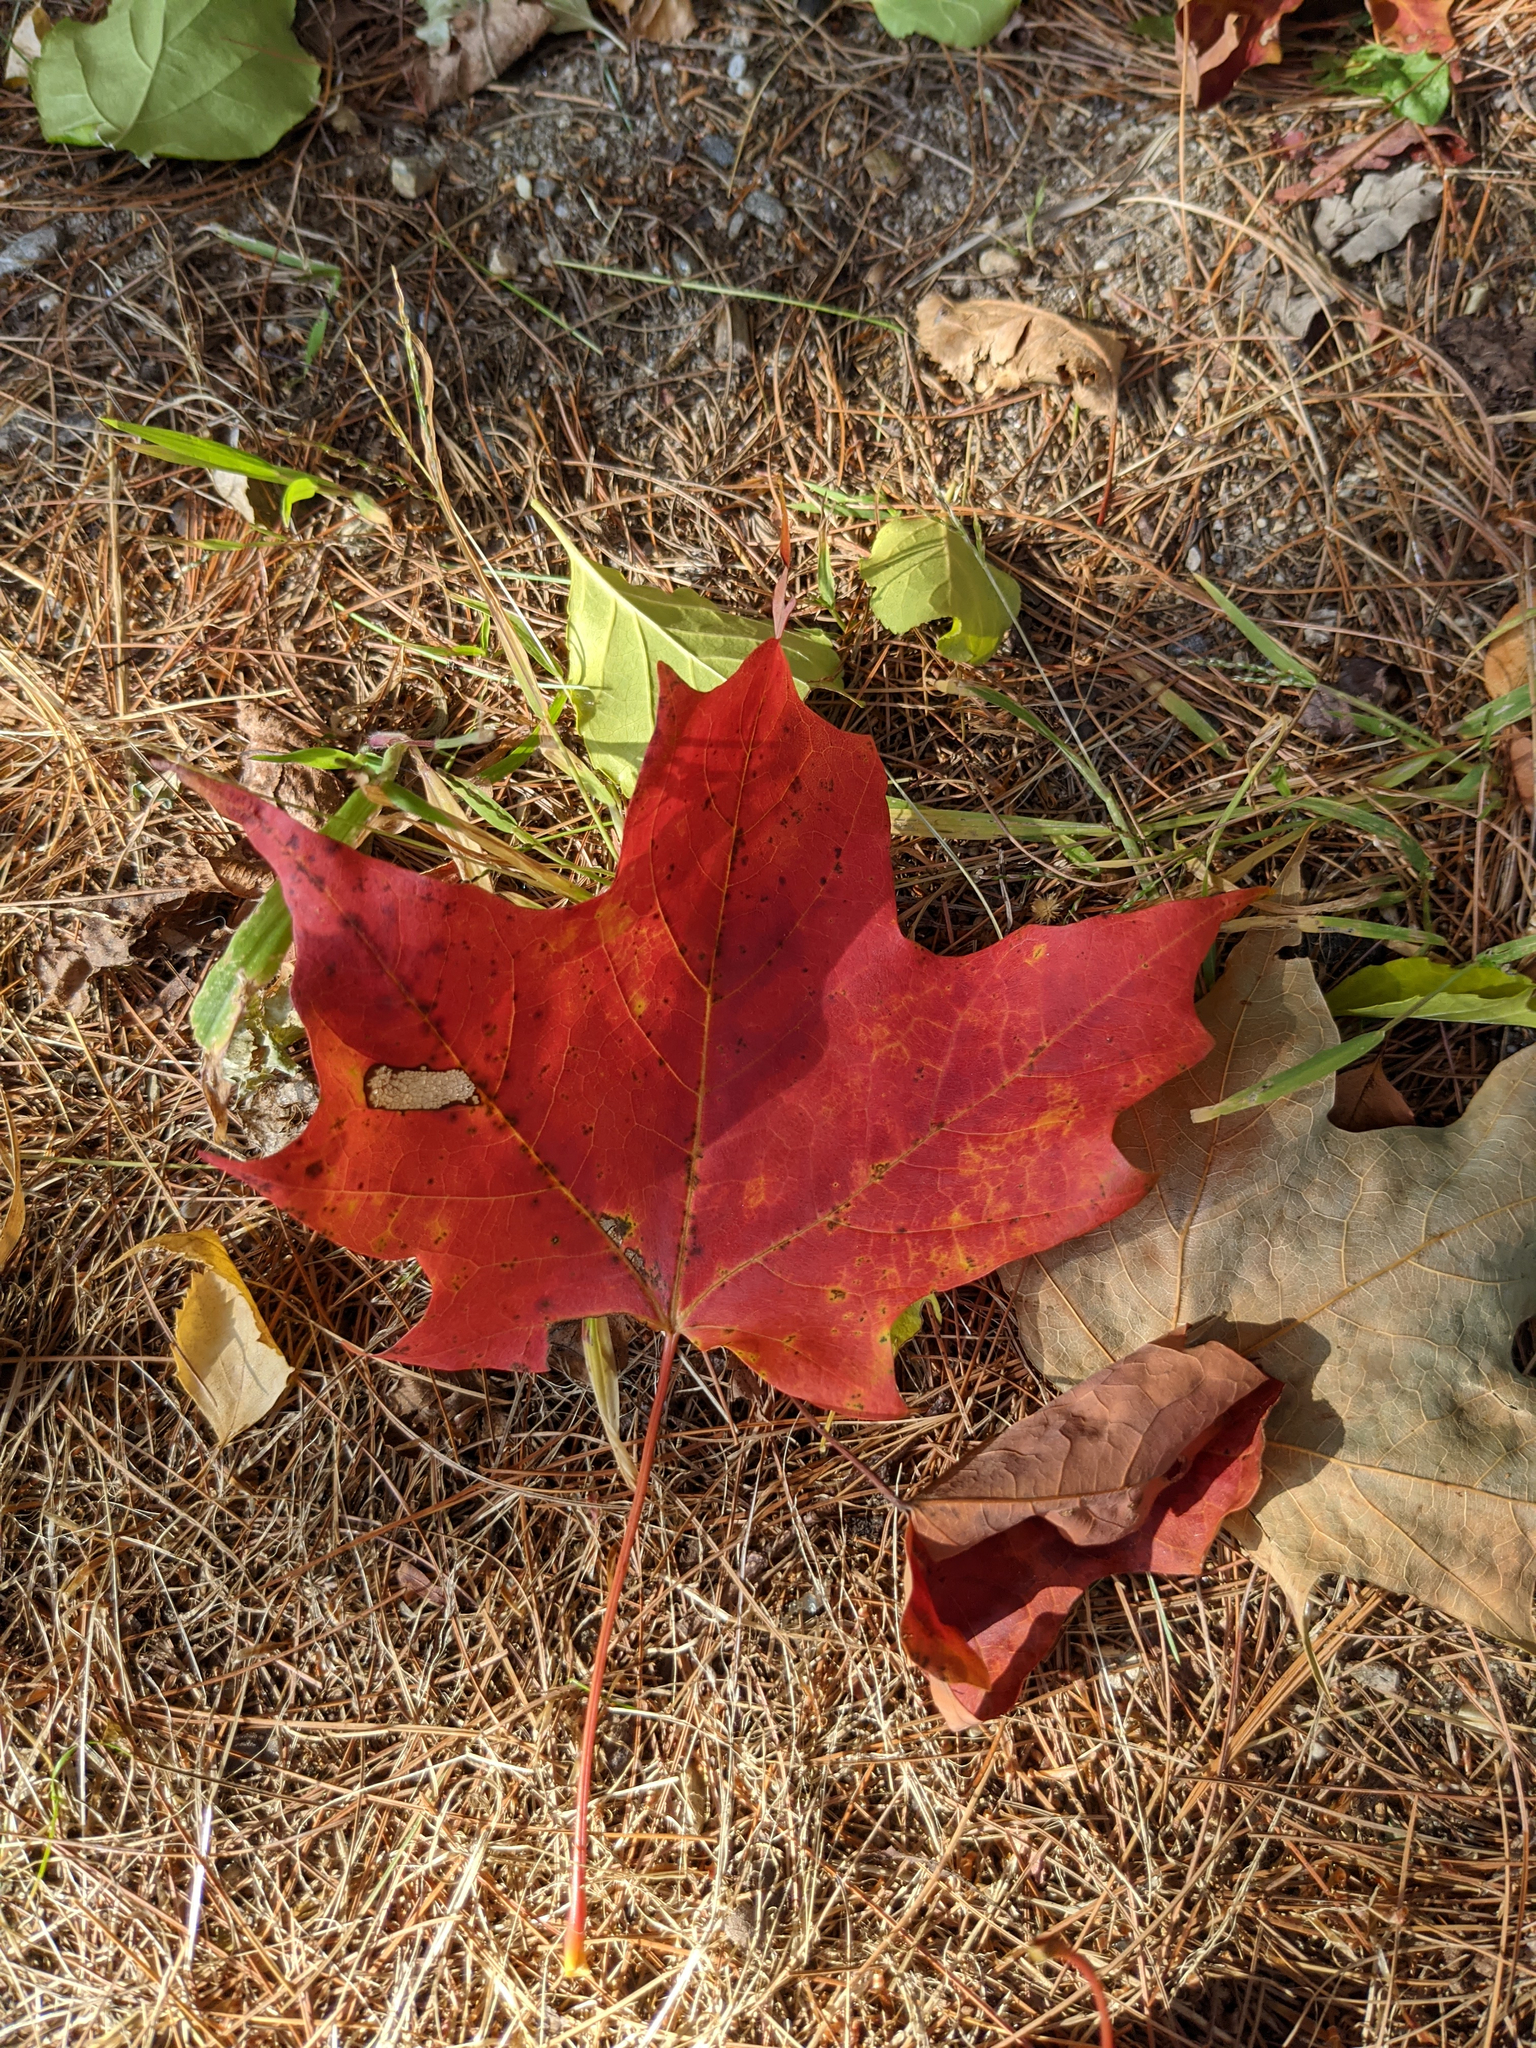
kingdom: Plantae
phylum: Tracheophyta
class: Magnoliopsida
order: Sapindales
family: Sapindaceae
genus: Acer
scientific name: Acer saccharum
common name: Sugar maple
